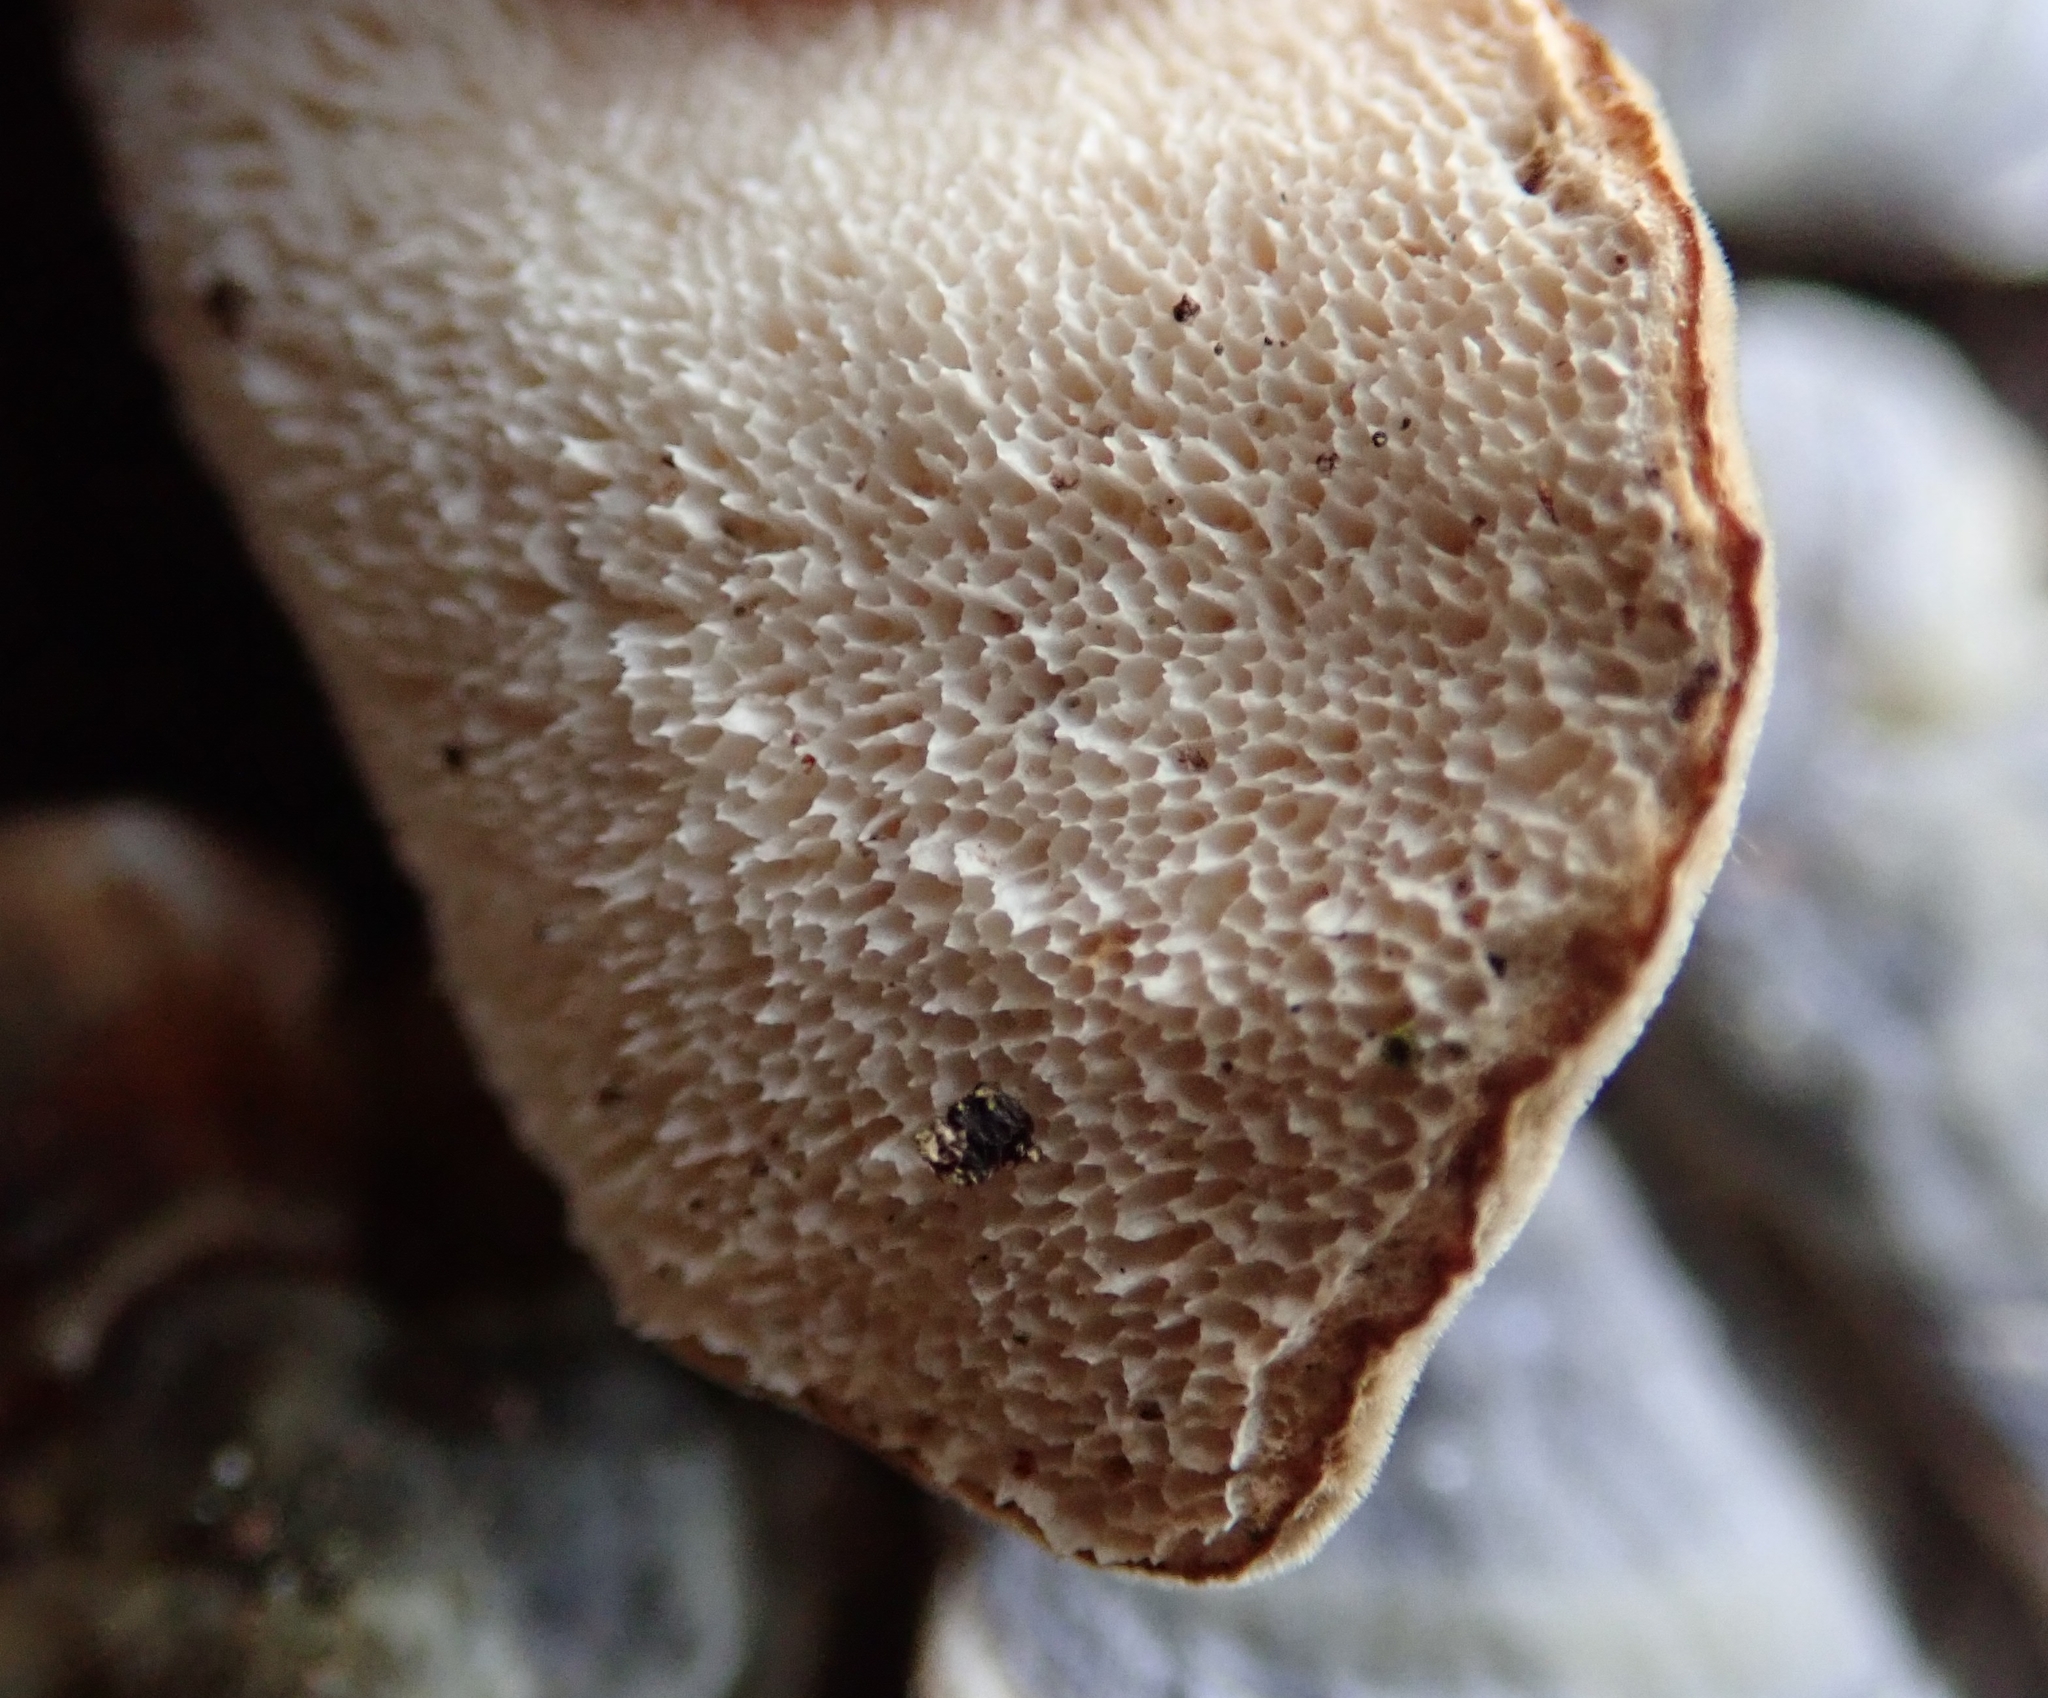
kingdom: Fungi
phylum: Basidiomycota
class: Agaricomycetes
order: Polyporales
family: Polyporaceae
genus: Trametes
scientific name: Trametes versicolor
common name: Turkeytail
